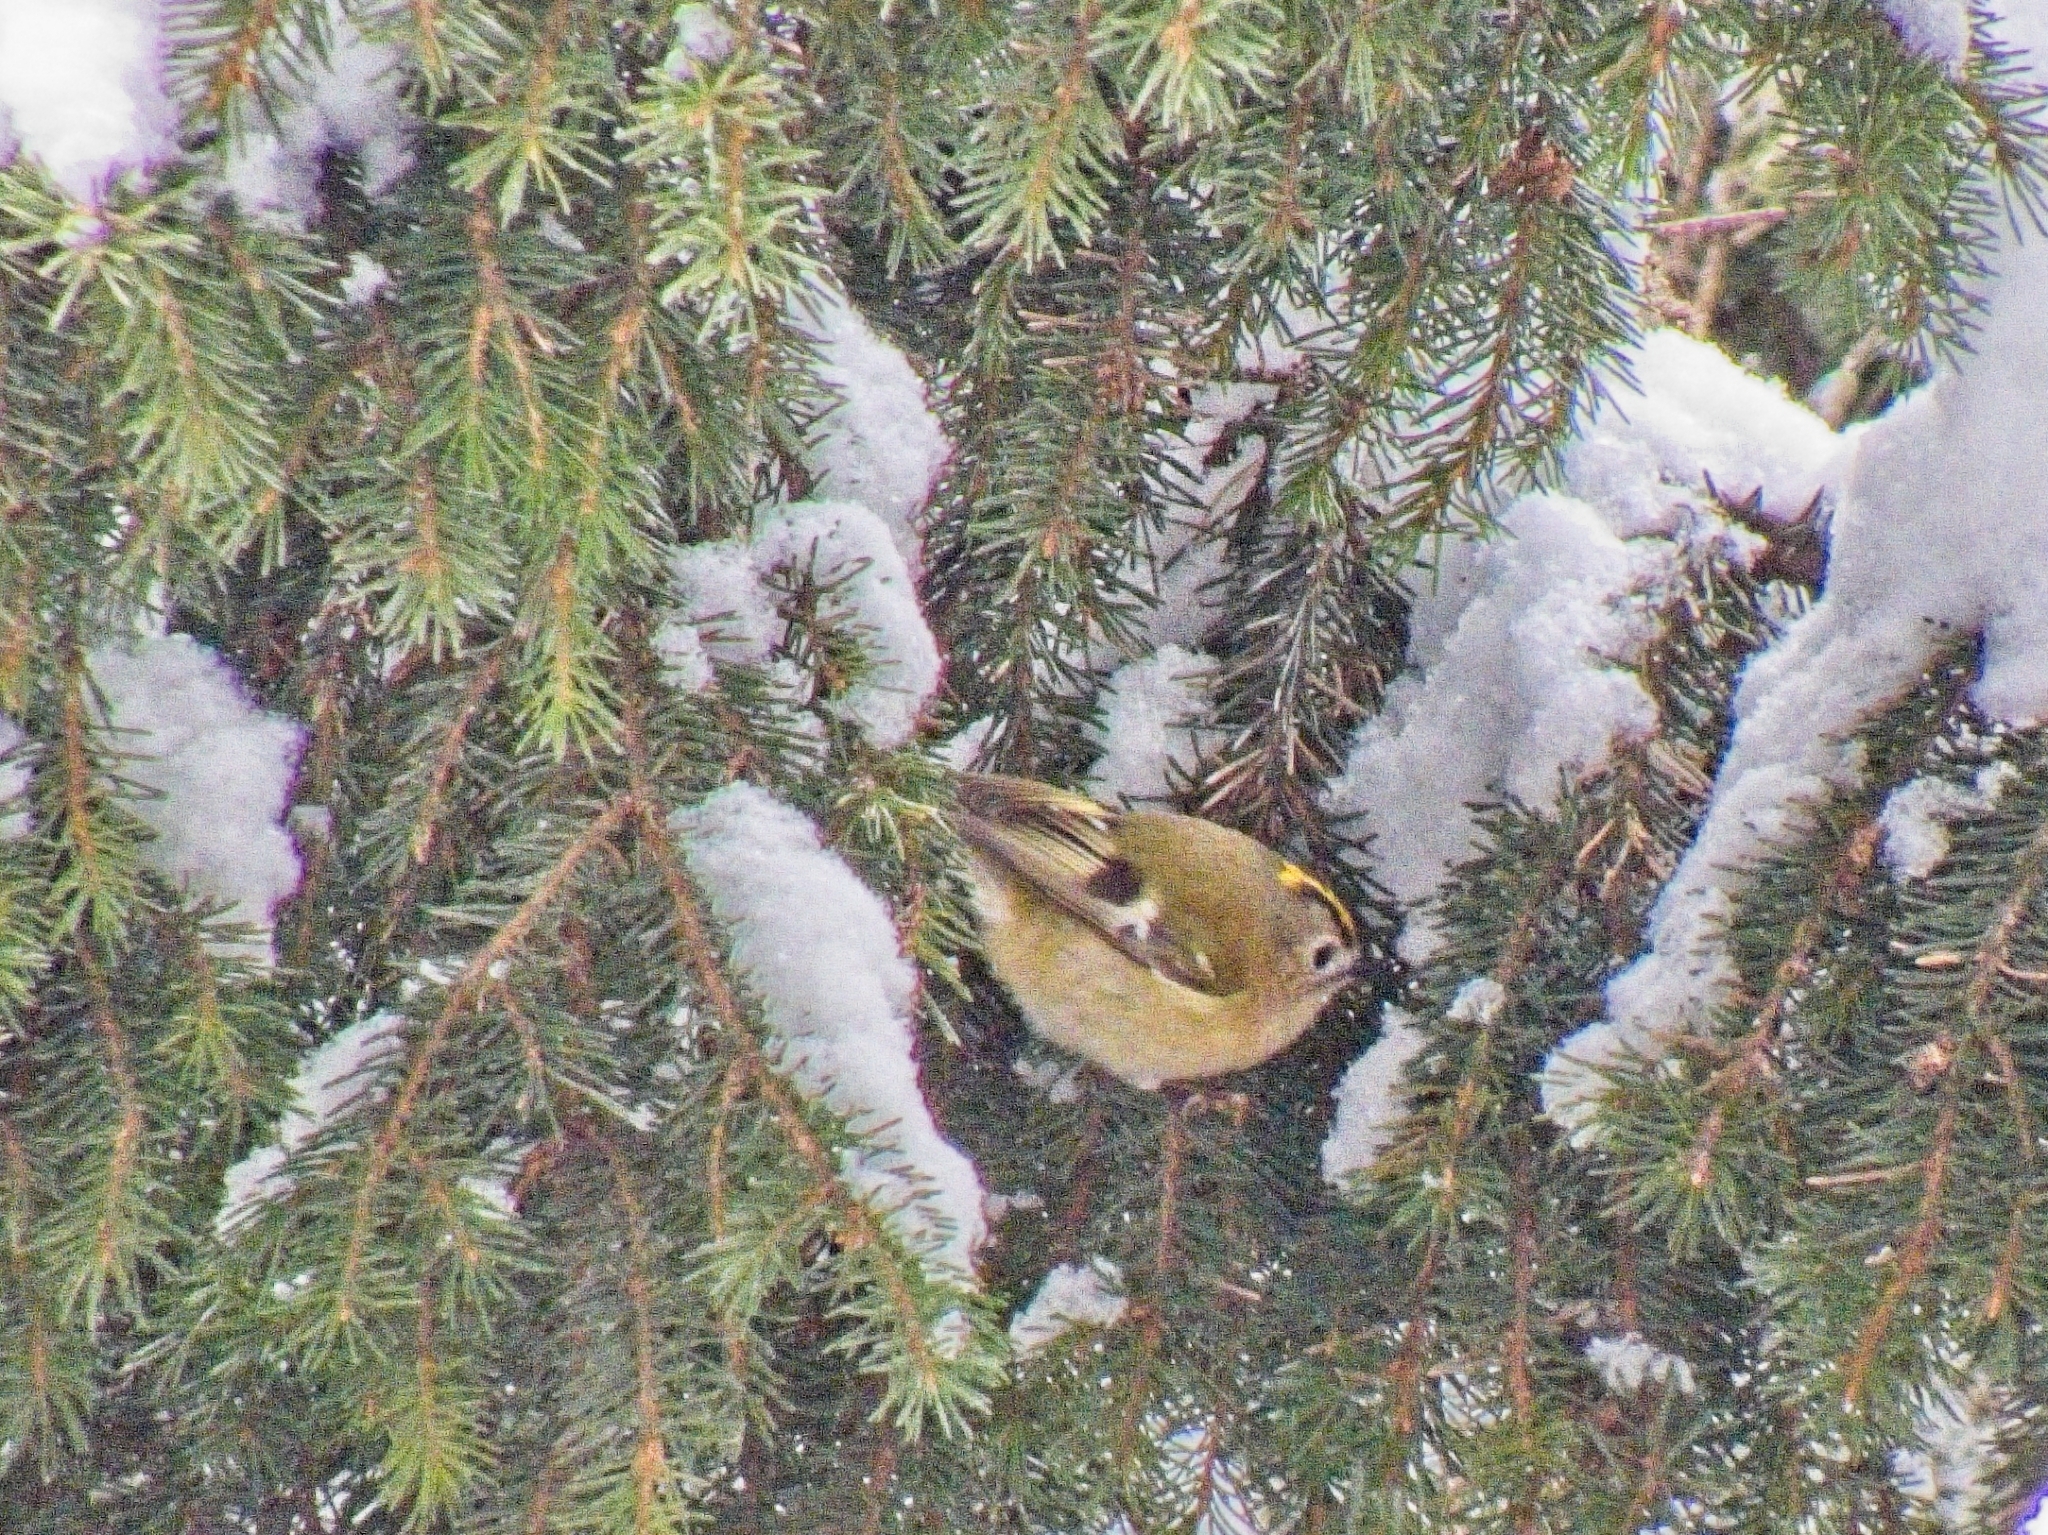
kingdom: Animalia
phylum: Chordata
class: Aves
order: Passeriformes
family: Regulidae
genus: Regulus
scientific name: Regulus regulus
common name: Goldcrest
